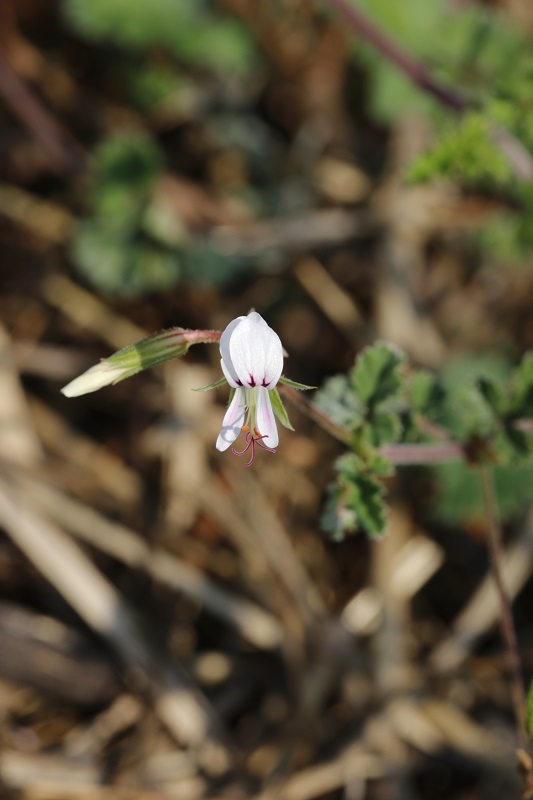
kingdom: Plantae
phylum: Tracheophyta
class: Magnoliopsida
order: Geraniales
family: Geraniaceae
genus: Pelargonium
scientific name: Pelargonium candicans
